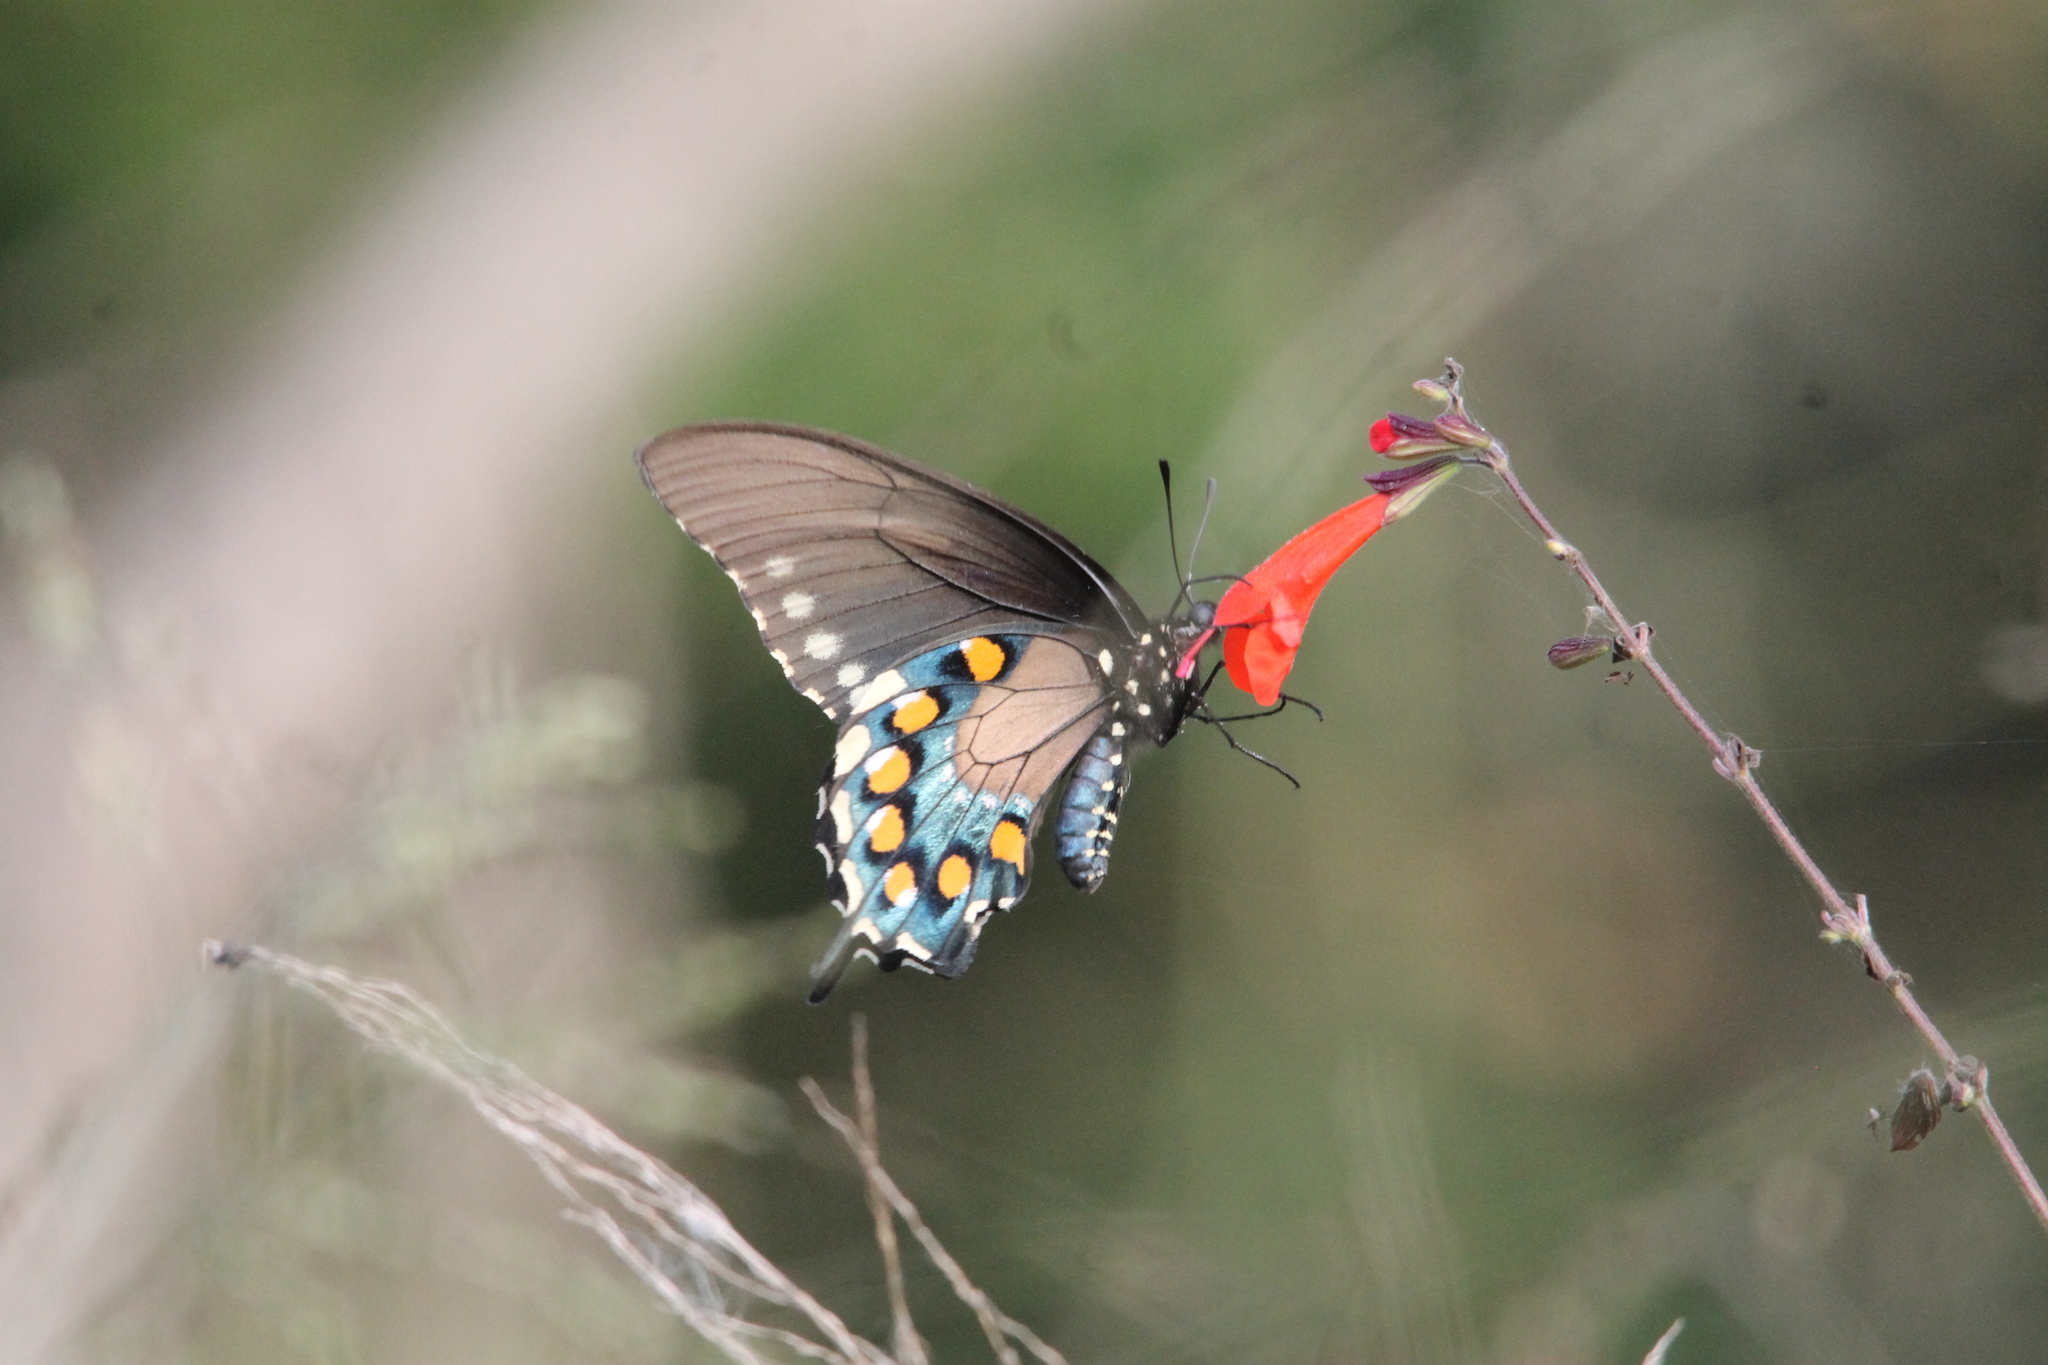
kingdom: Animalia
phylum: Arthropoda
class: Insecta
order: Lepidoptera
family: Papilionidae
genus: Battus
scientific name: Battus philenor
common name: Pipevine swallowtail
